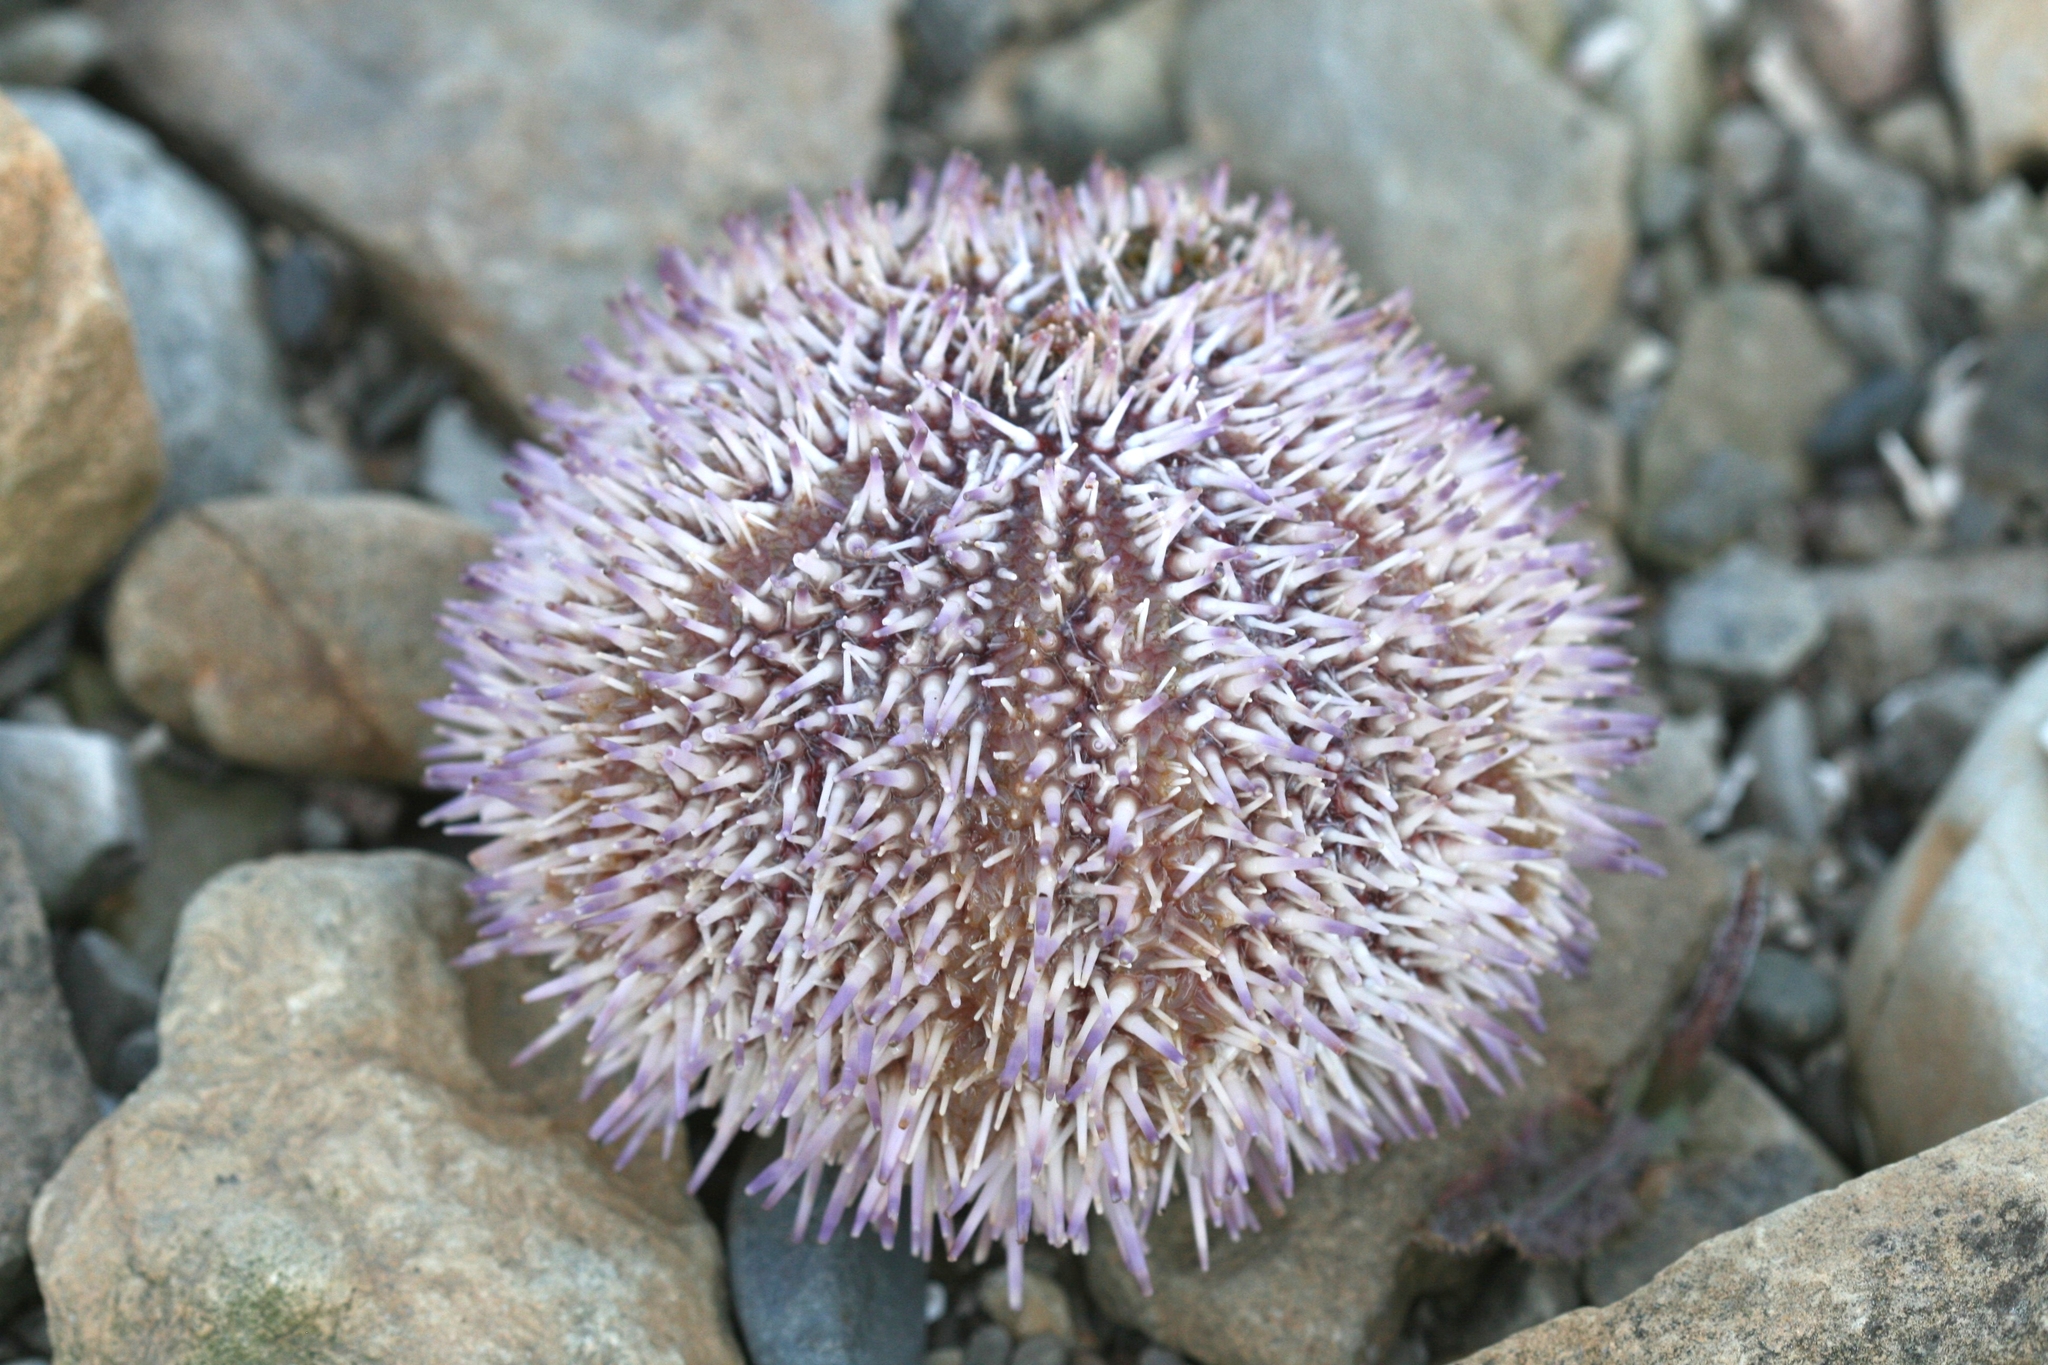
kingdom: Animalia
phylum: Echinodermata
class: Echinoidea
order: Camarodonta
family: Echinidae
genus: Echinus
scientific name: Echinus esculentus
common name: Edible sea urchin
